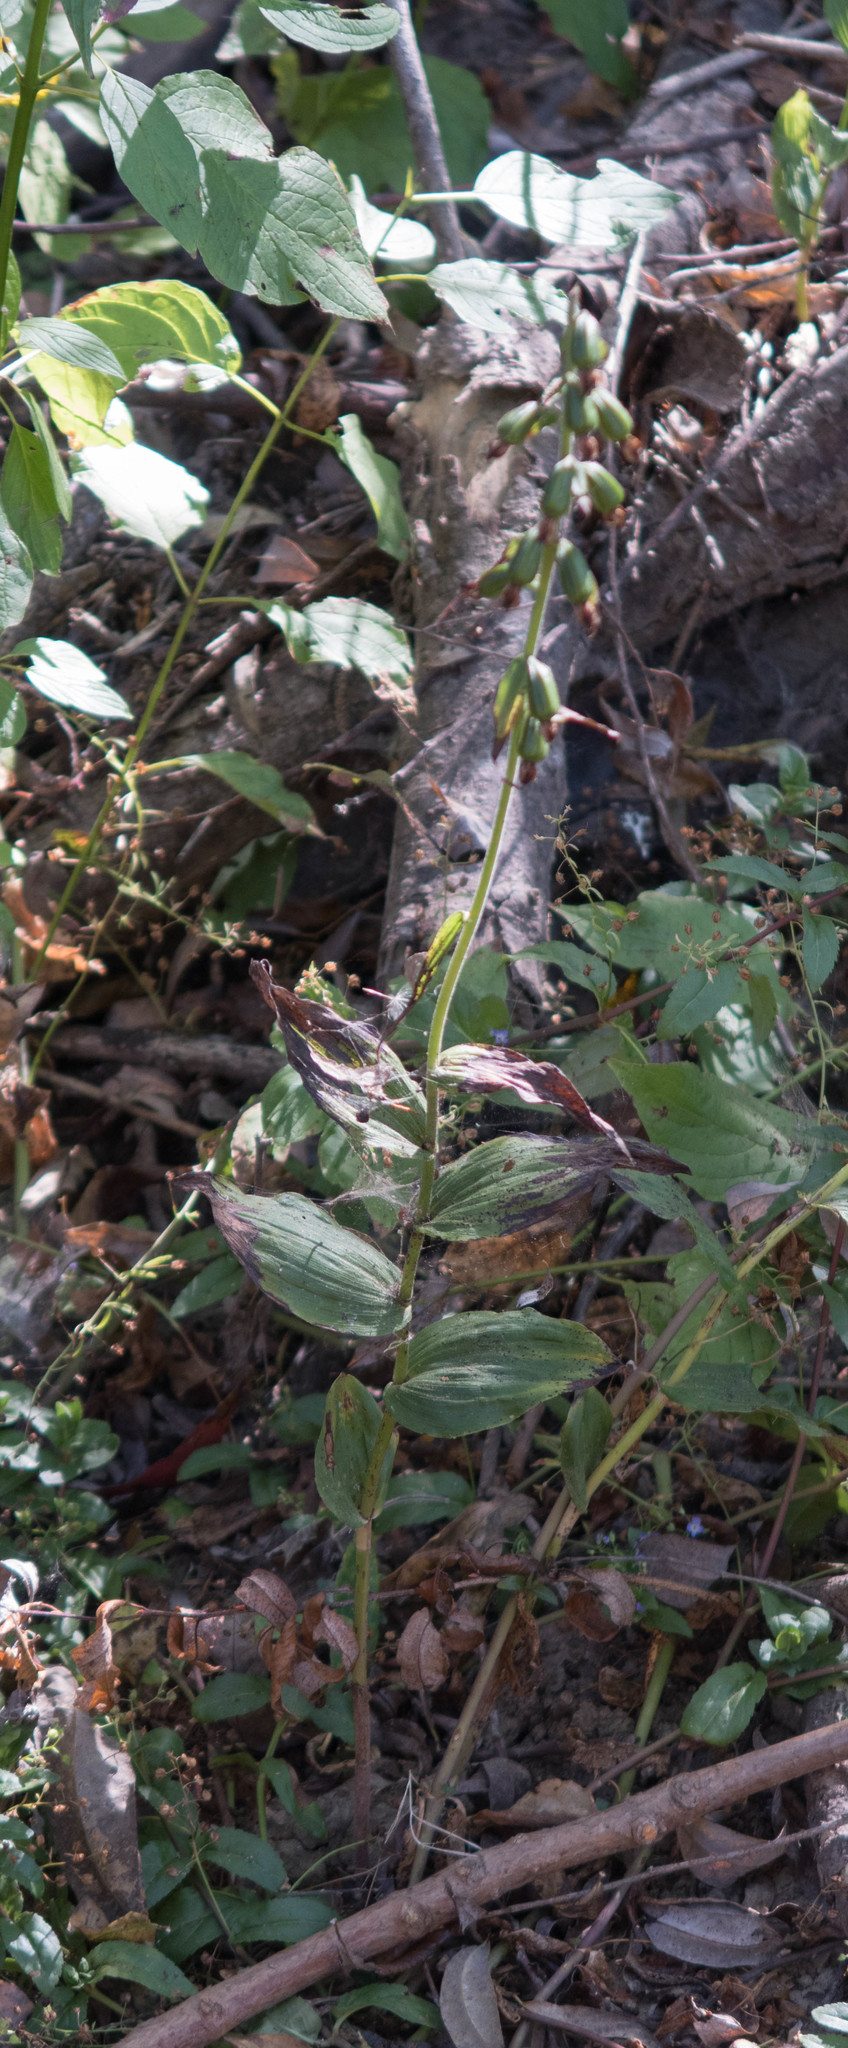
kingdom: Plantae
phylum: Tracheophyta
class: Liliopsida
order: Asparagales
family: Orchidaceae
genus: Epipactis
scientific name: Epipactis helleborine
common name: Broad-leaved helleborine
